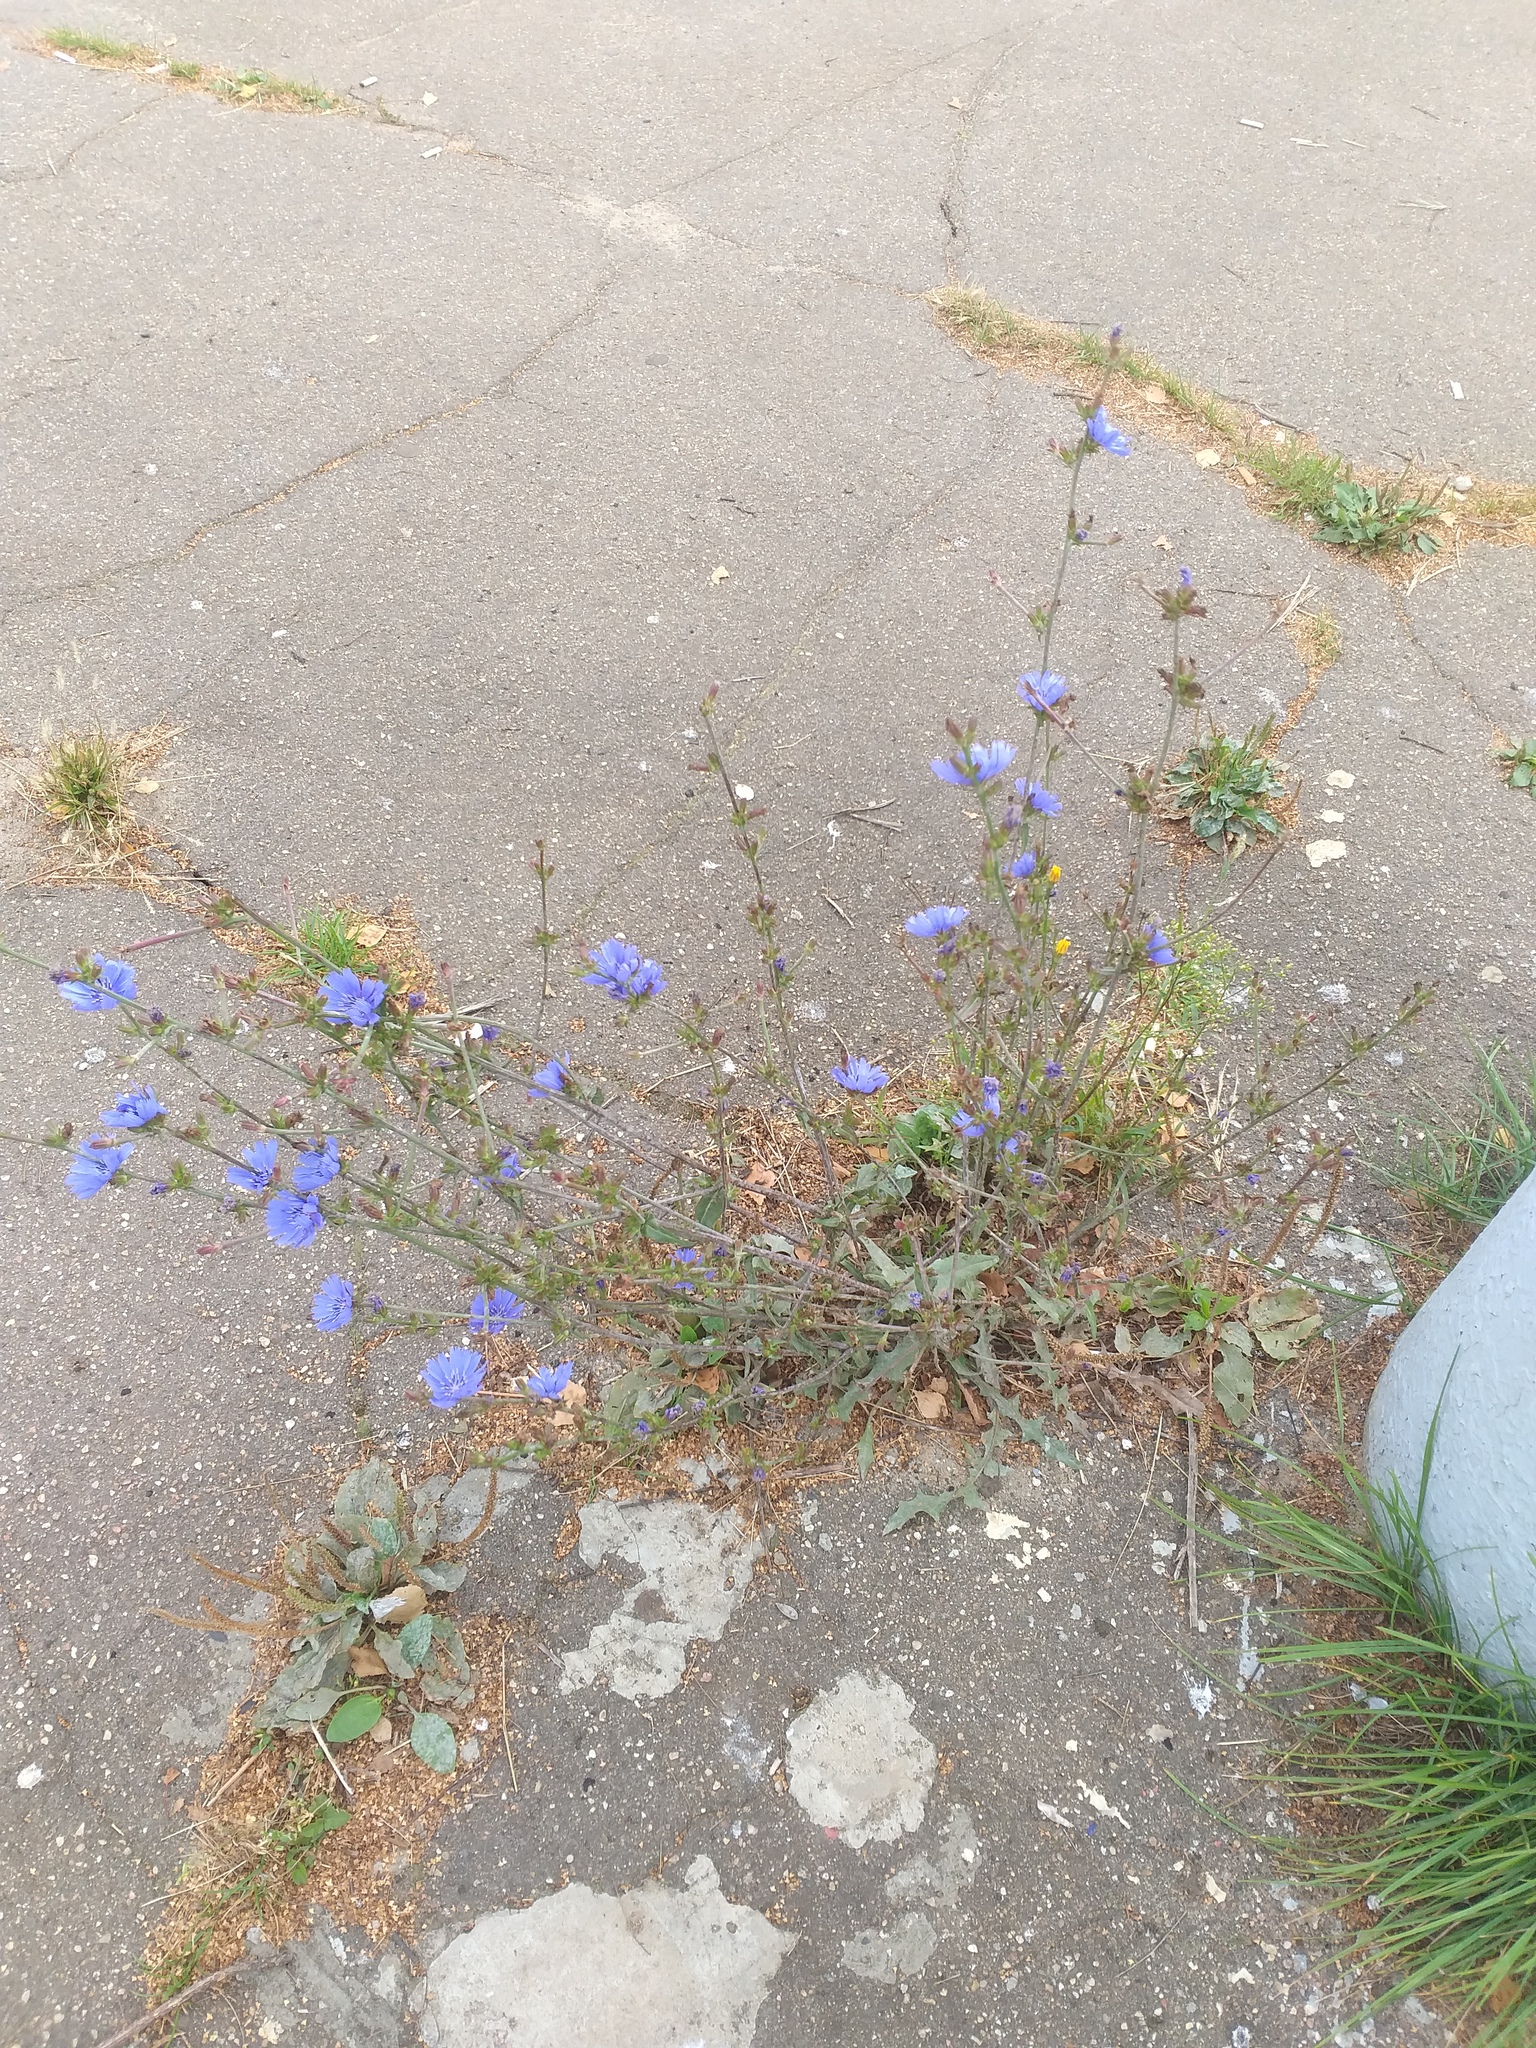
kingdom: Plantae
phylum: Tracheophyta
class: Magnoliopsida
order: Asterales
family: Asteraceae
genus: Cichorium
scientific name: Cichorium intybus
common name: Chicory
